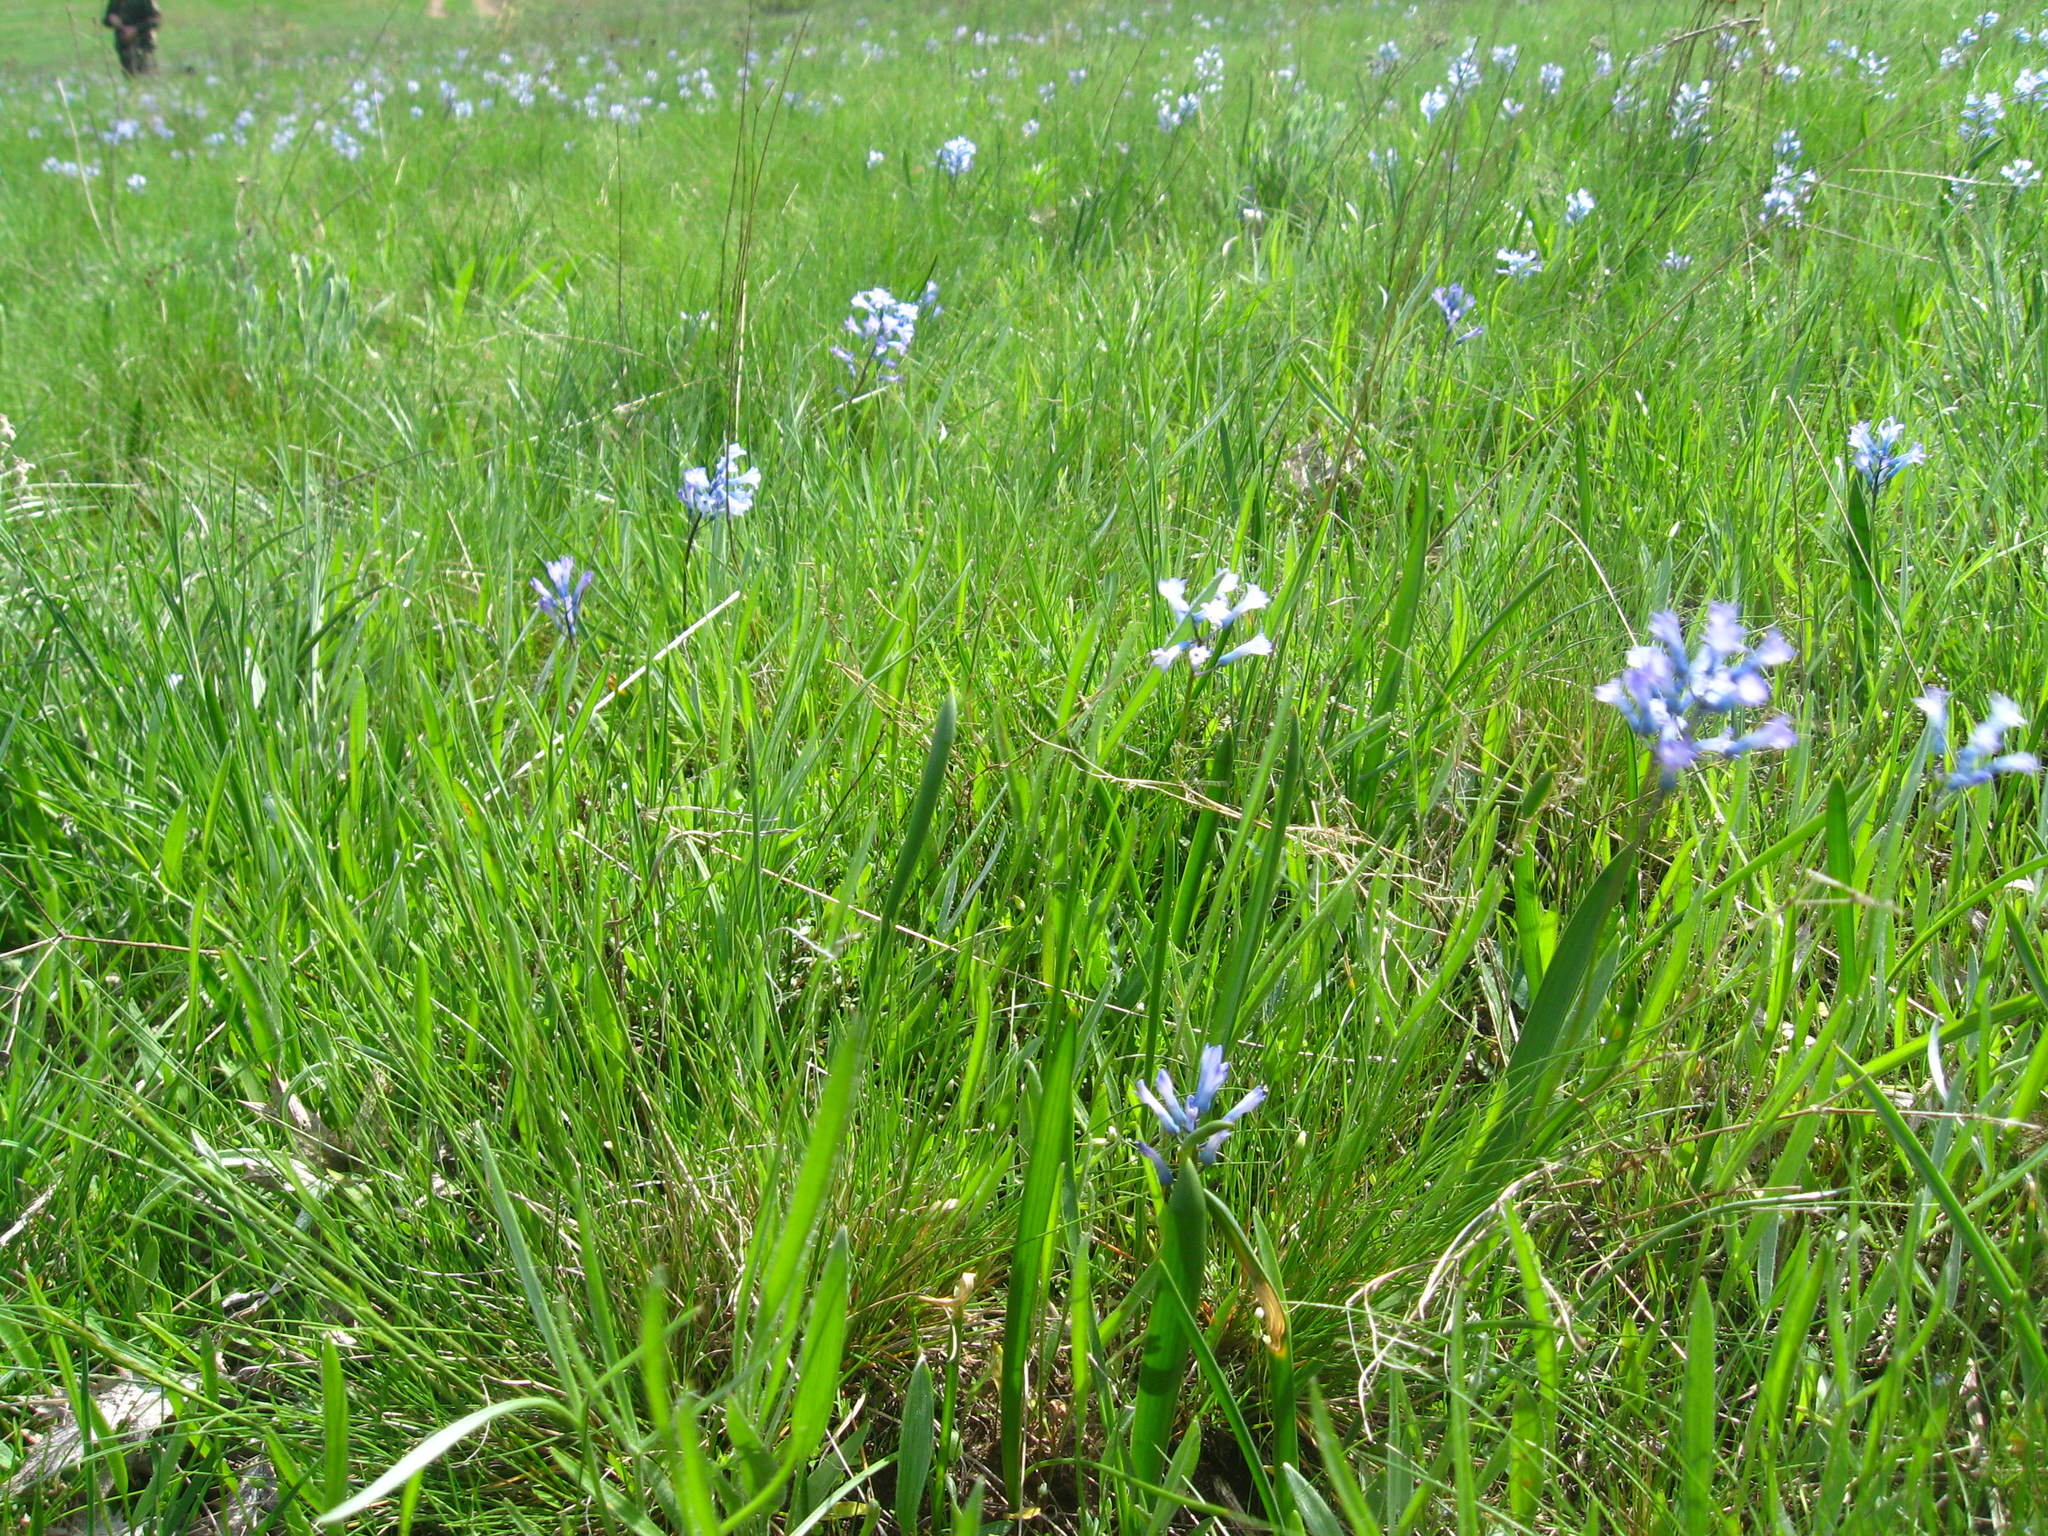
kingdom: Plantae
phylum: Tracheophyta
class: Liliopsida
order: Asparagales
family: Asparagaceae
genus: Hyacinthella
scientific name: Hyacinthella pallasiana
